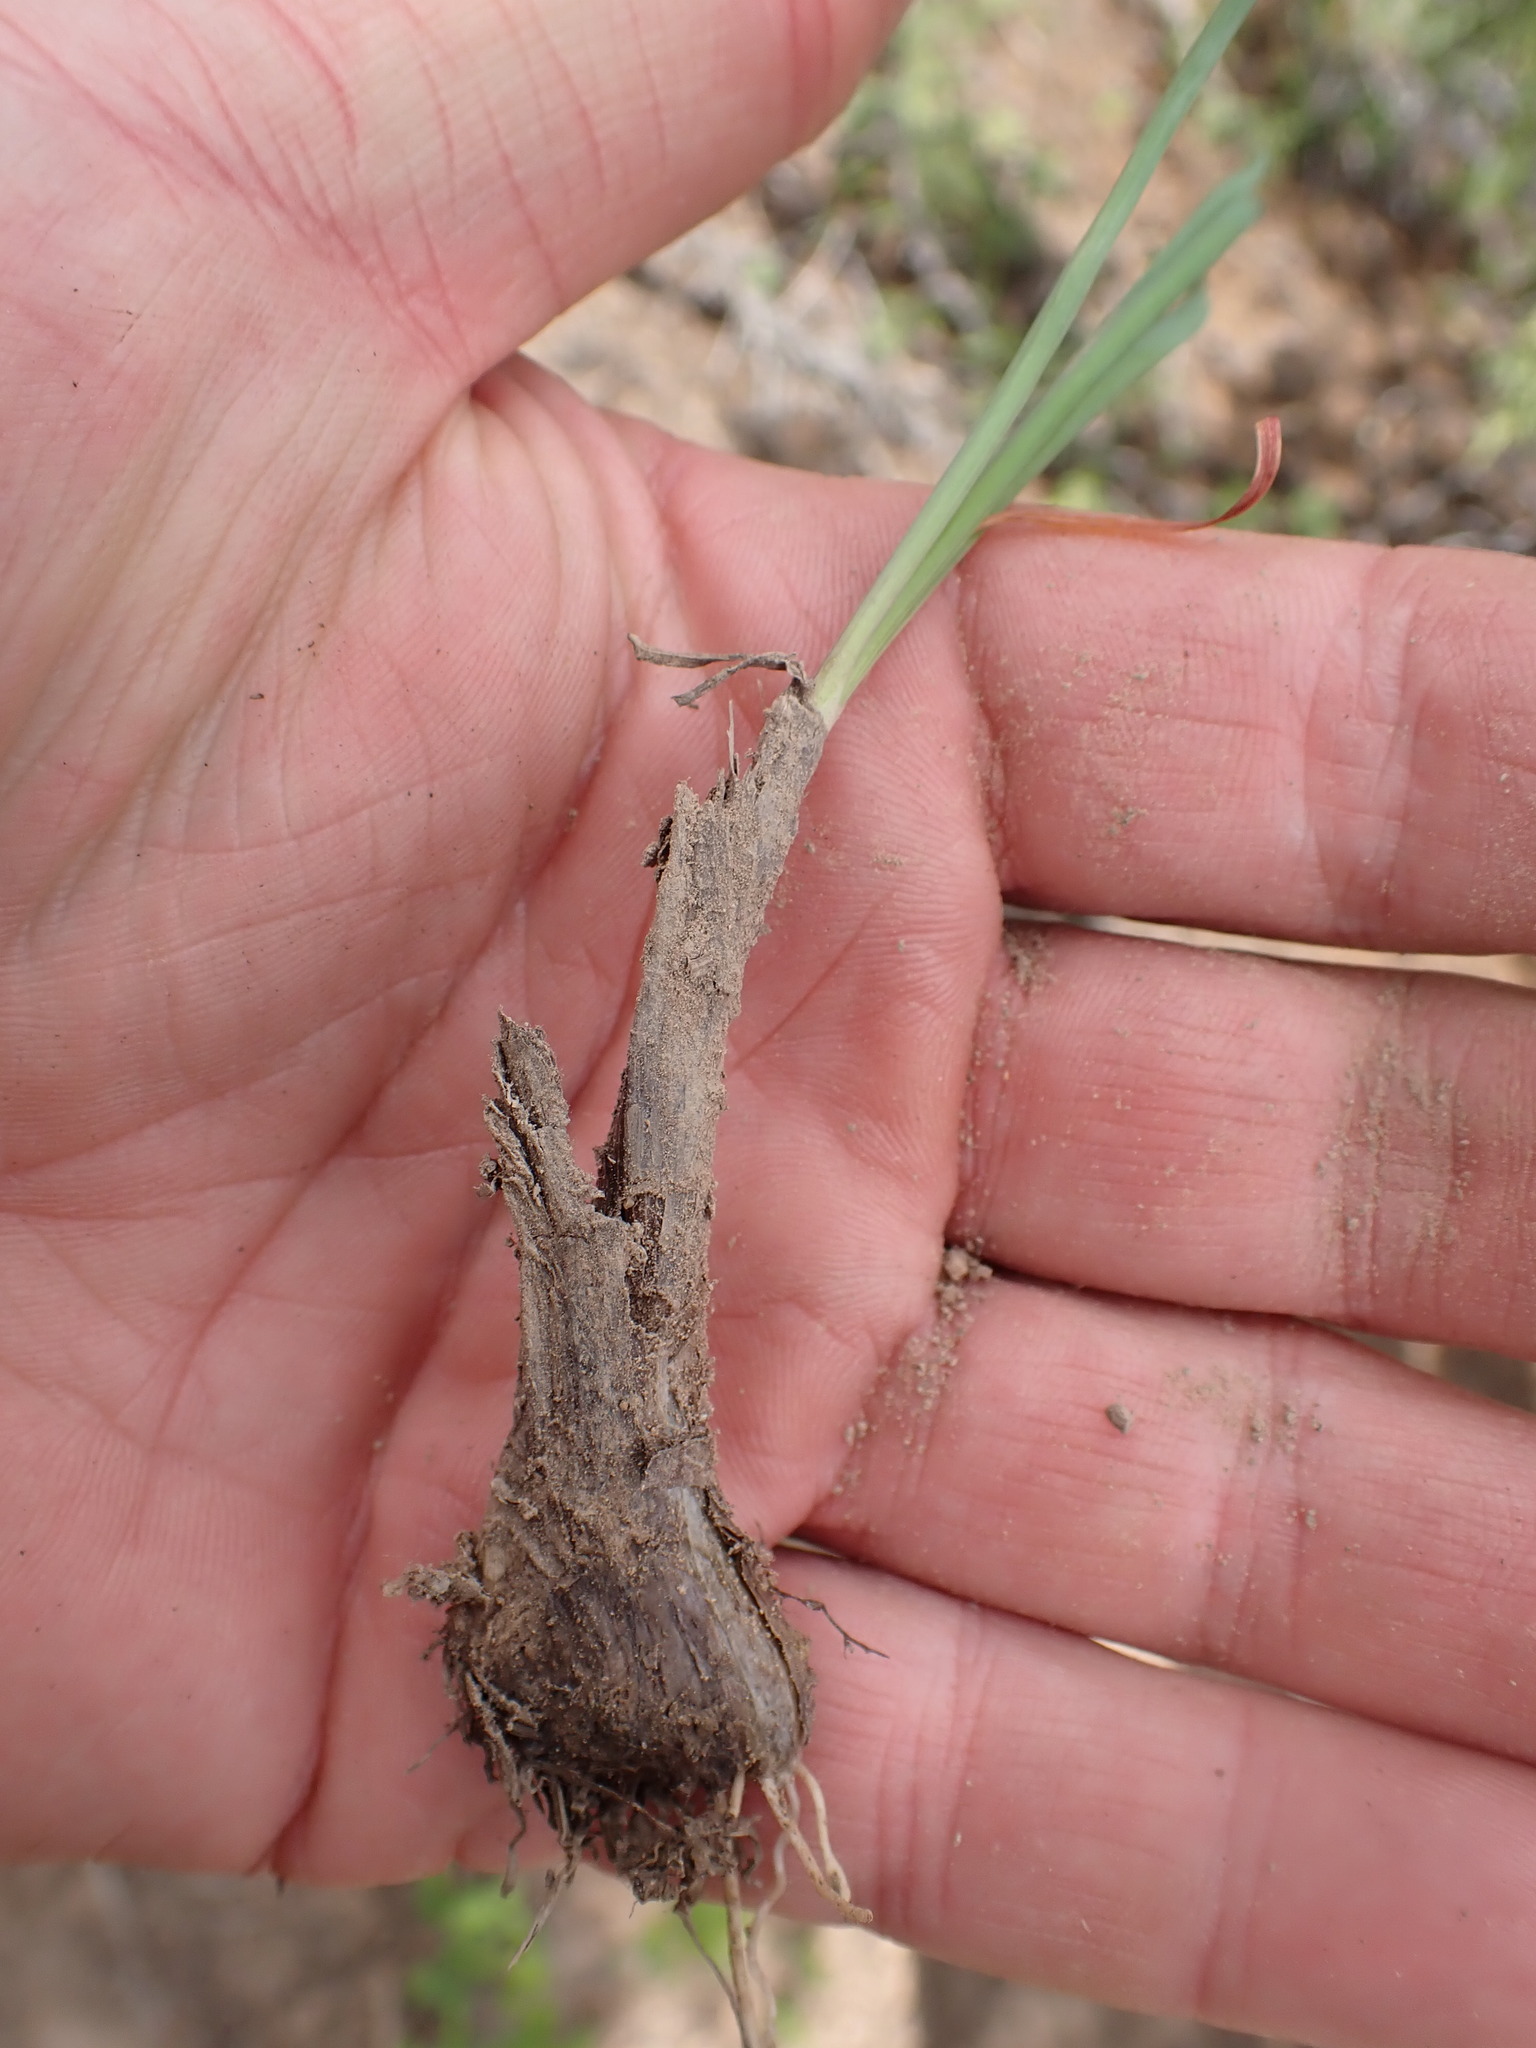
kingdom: Plantae
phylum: Tracheophyta
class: Liliopsida
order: Asparagales
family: Amaryllidaceae
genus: Allium
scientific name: Allium cernuum
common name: Nodding onion
